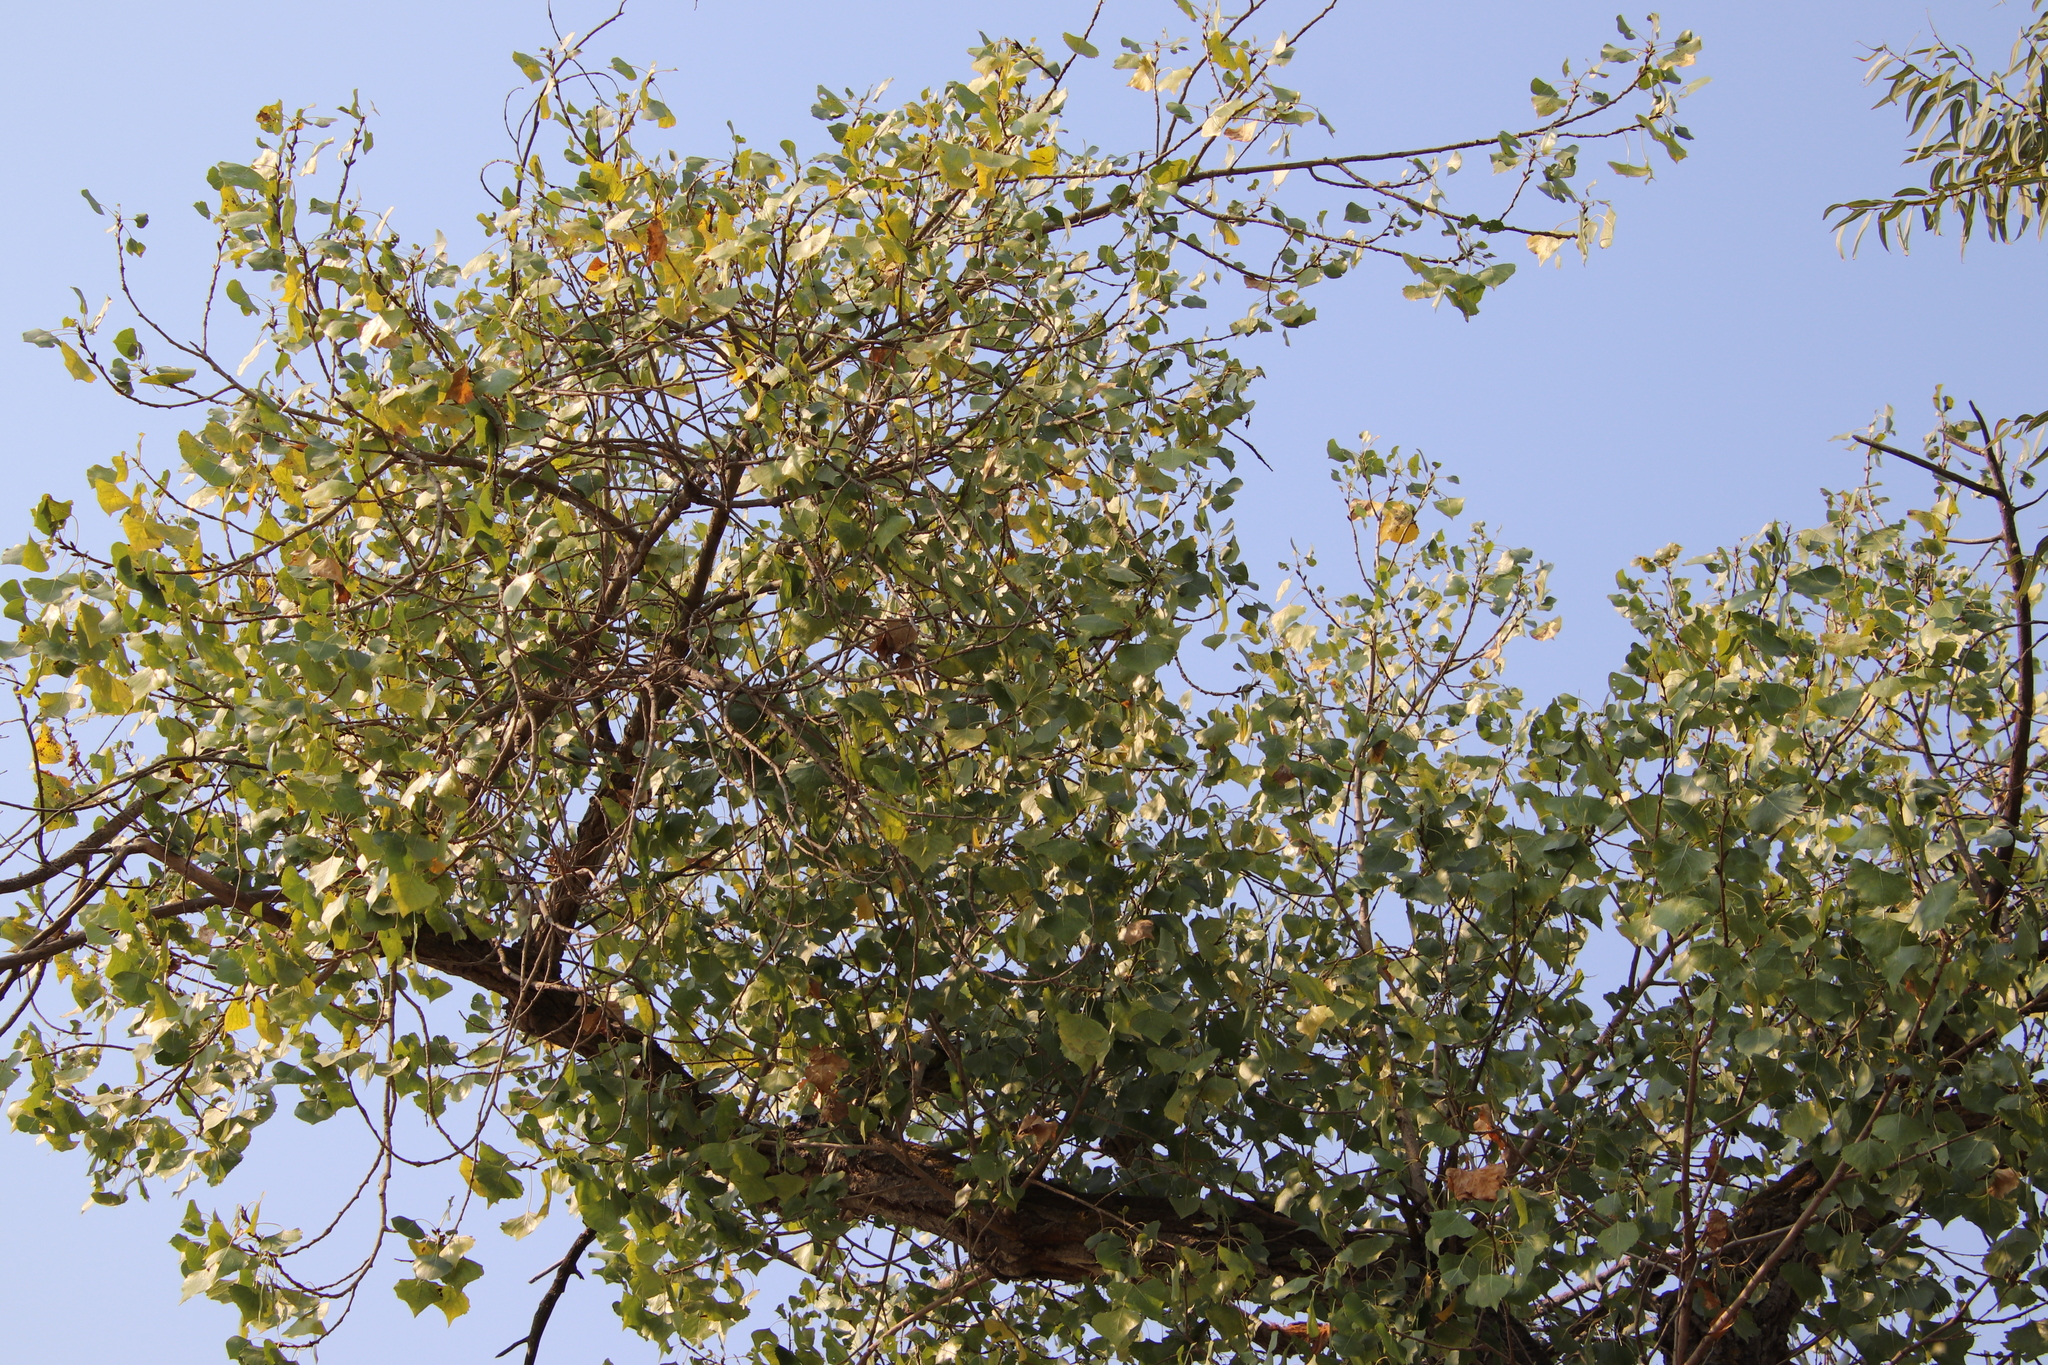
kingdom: Plantae
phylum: Tracheophyta
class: Magnoliopsida
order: Malpighiales
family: Salicaceae
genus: Populus
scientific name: Populus fremontii
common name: Fremont's cottonwood
